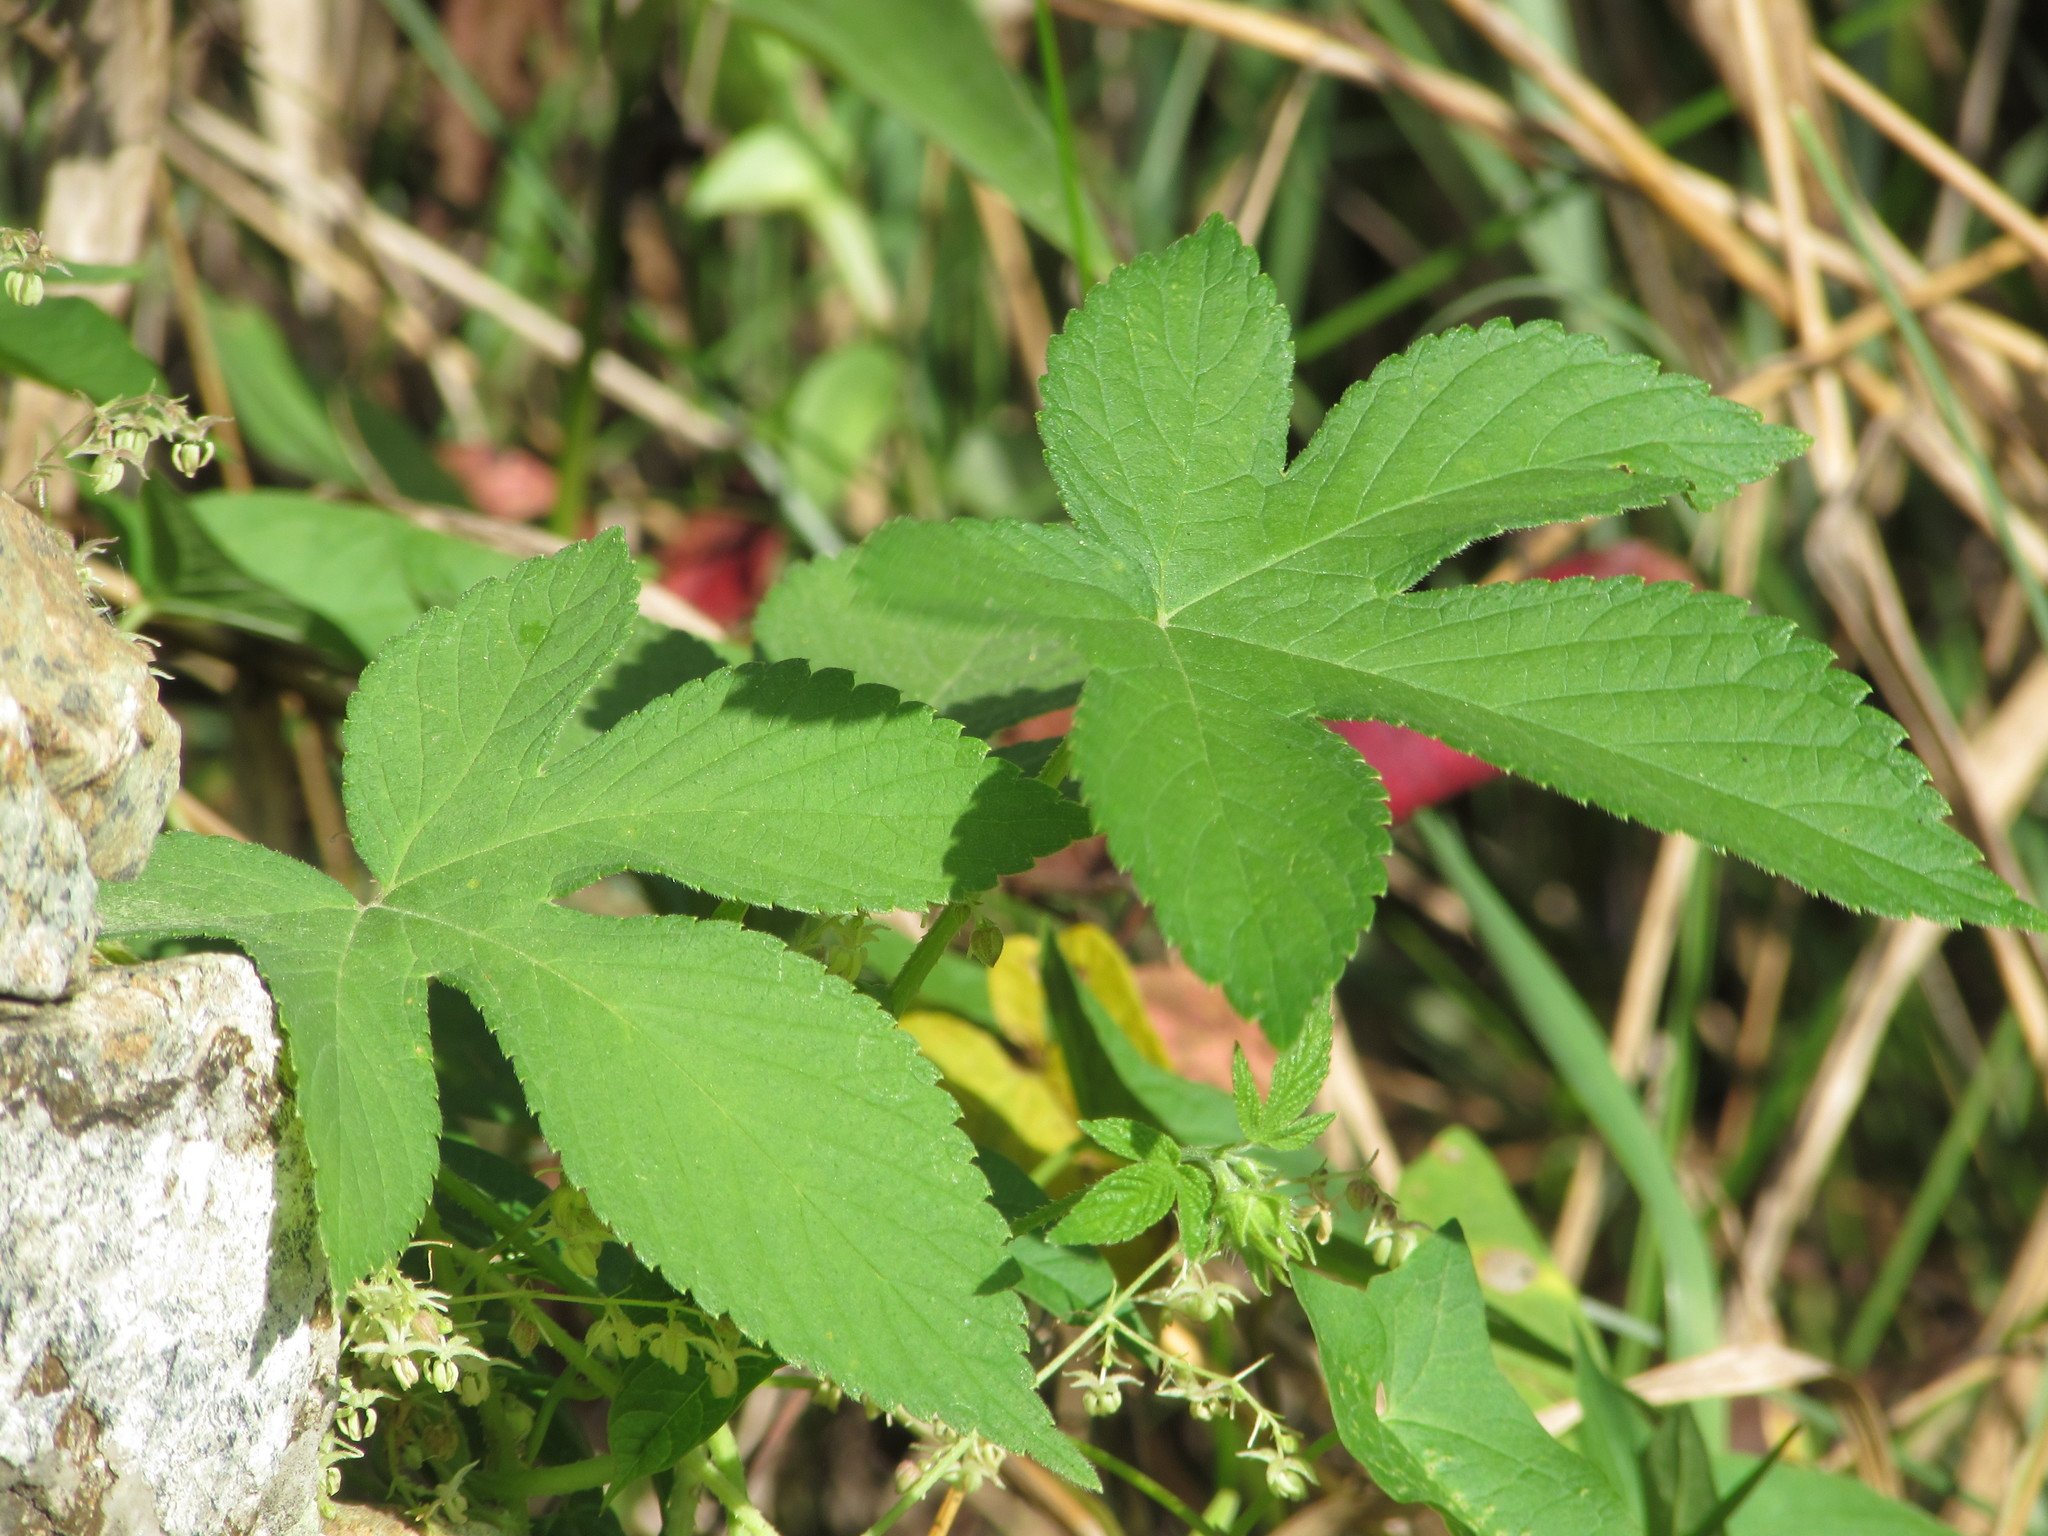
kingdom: Plantae
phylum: Tracheophyta
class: Magnoliopsida
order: Rosales
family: Cannabaceae
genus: Humulus
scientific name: Humulus scandens
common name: Japanese hop
